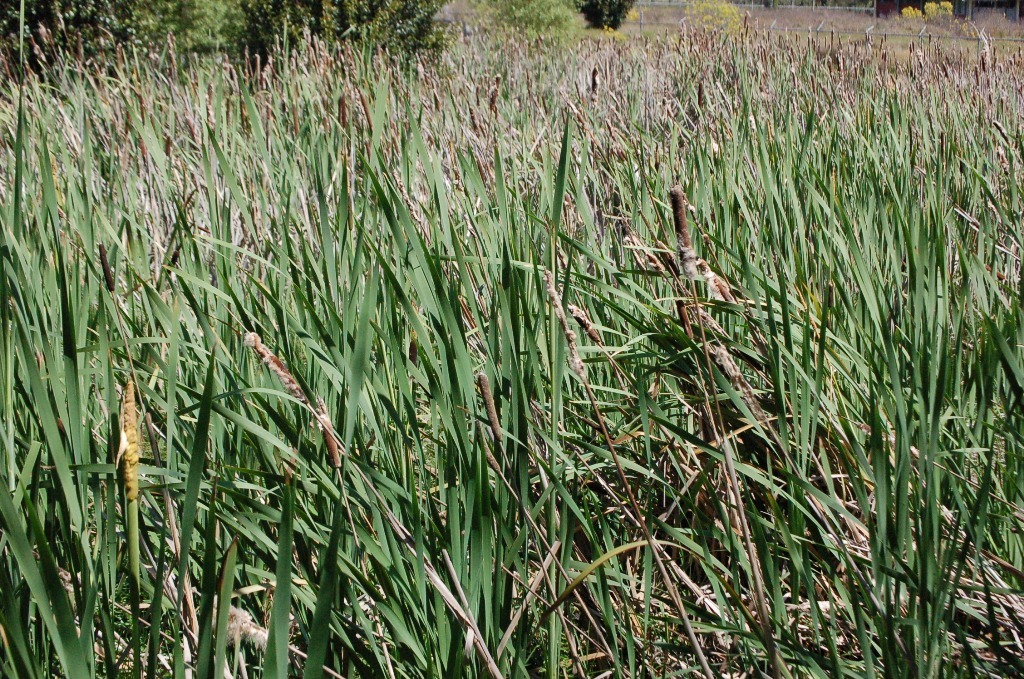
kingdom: Plantae
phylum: Tracheophyta
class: Liliopsida
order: Poales
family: Typhaceae
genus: Typha
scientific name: Typha latifolia
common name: Broadleaf cattail
